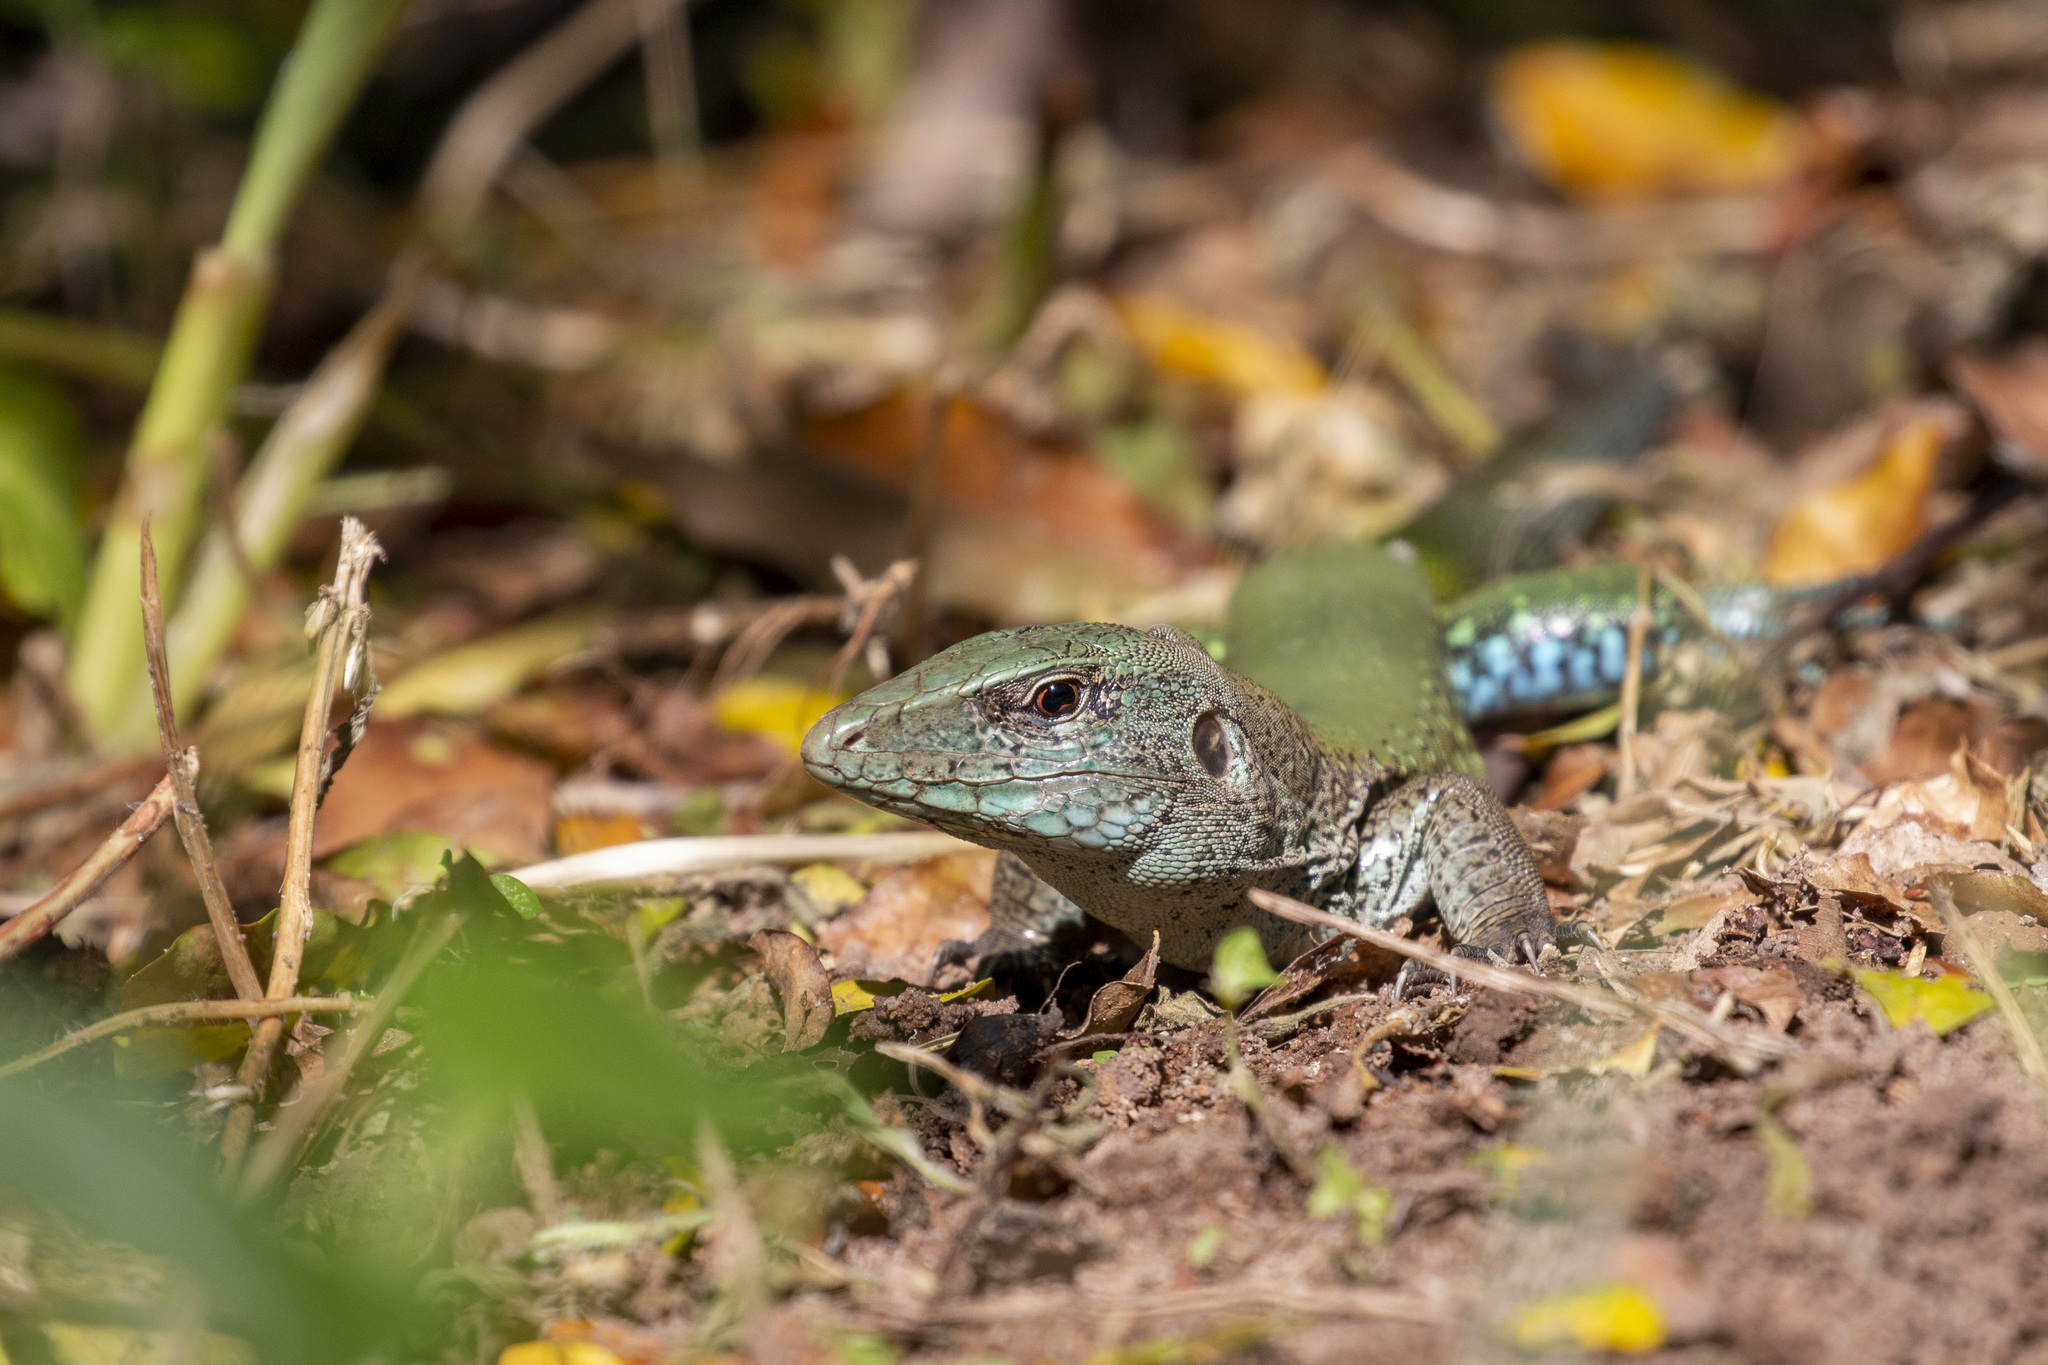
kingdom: Animalia
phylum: Chordata
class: Squamata
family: Teiidae
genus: Ameiva
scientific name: Ameiva ameiva
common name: Giant ameiva
